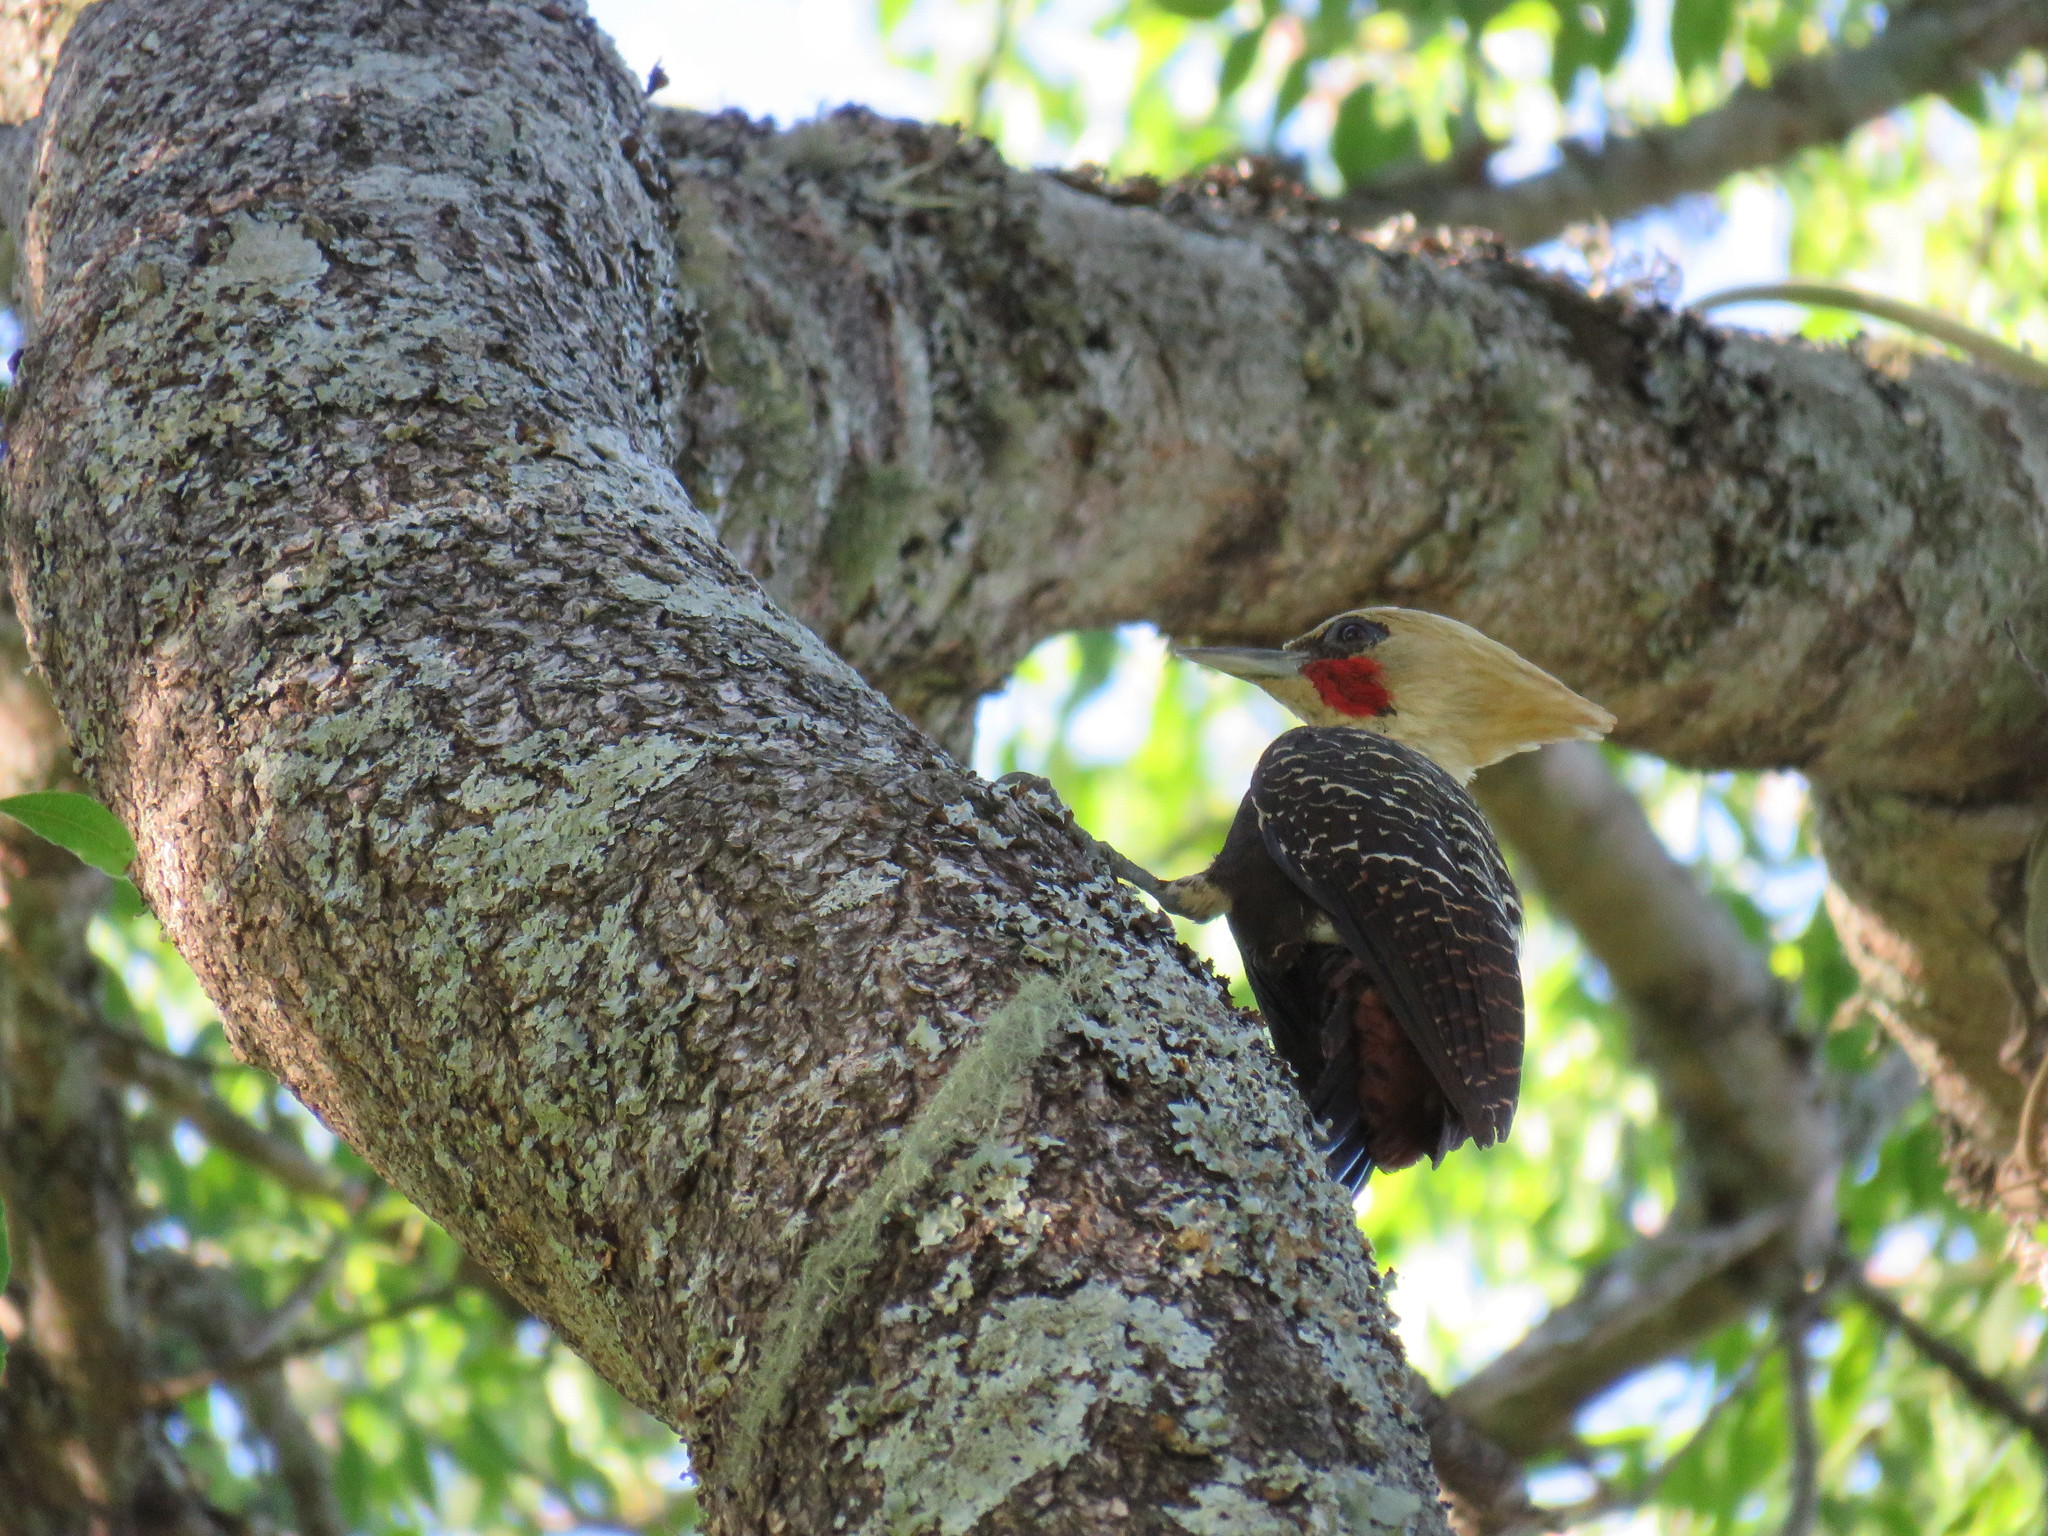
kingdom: Animalia
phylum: Chordata
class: Aves
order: Piciformes
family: Picidae
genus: Celeus
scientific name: Celeus lugubris
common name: Pale-crested woodpecker
